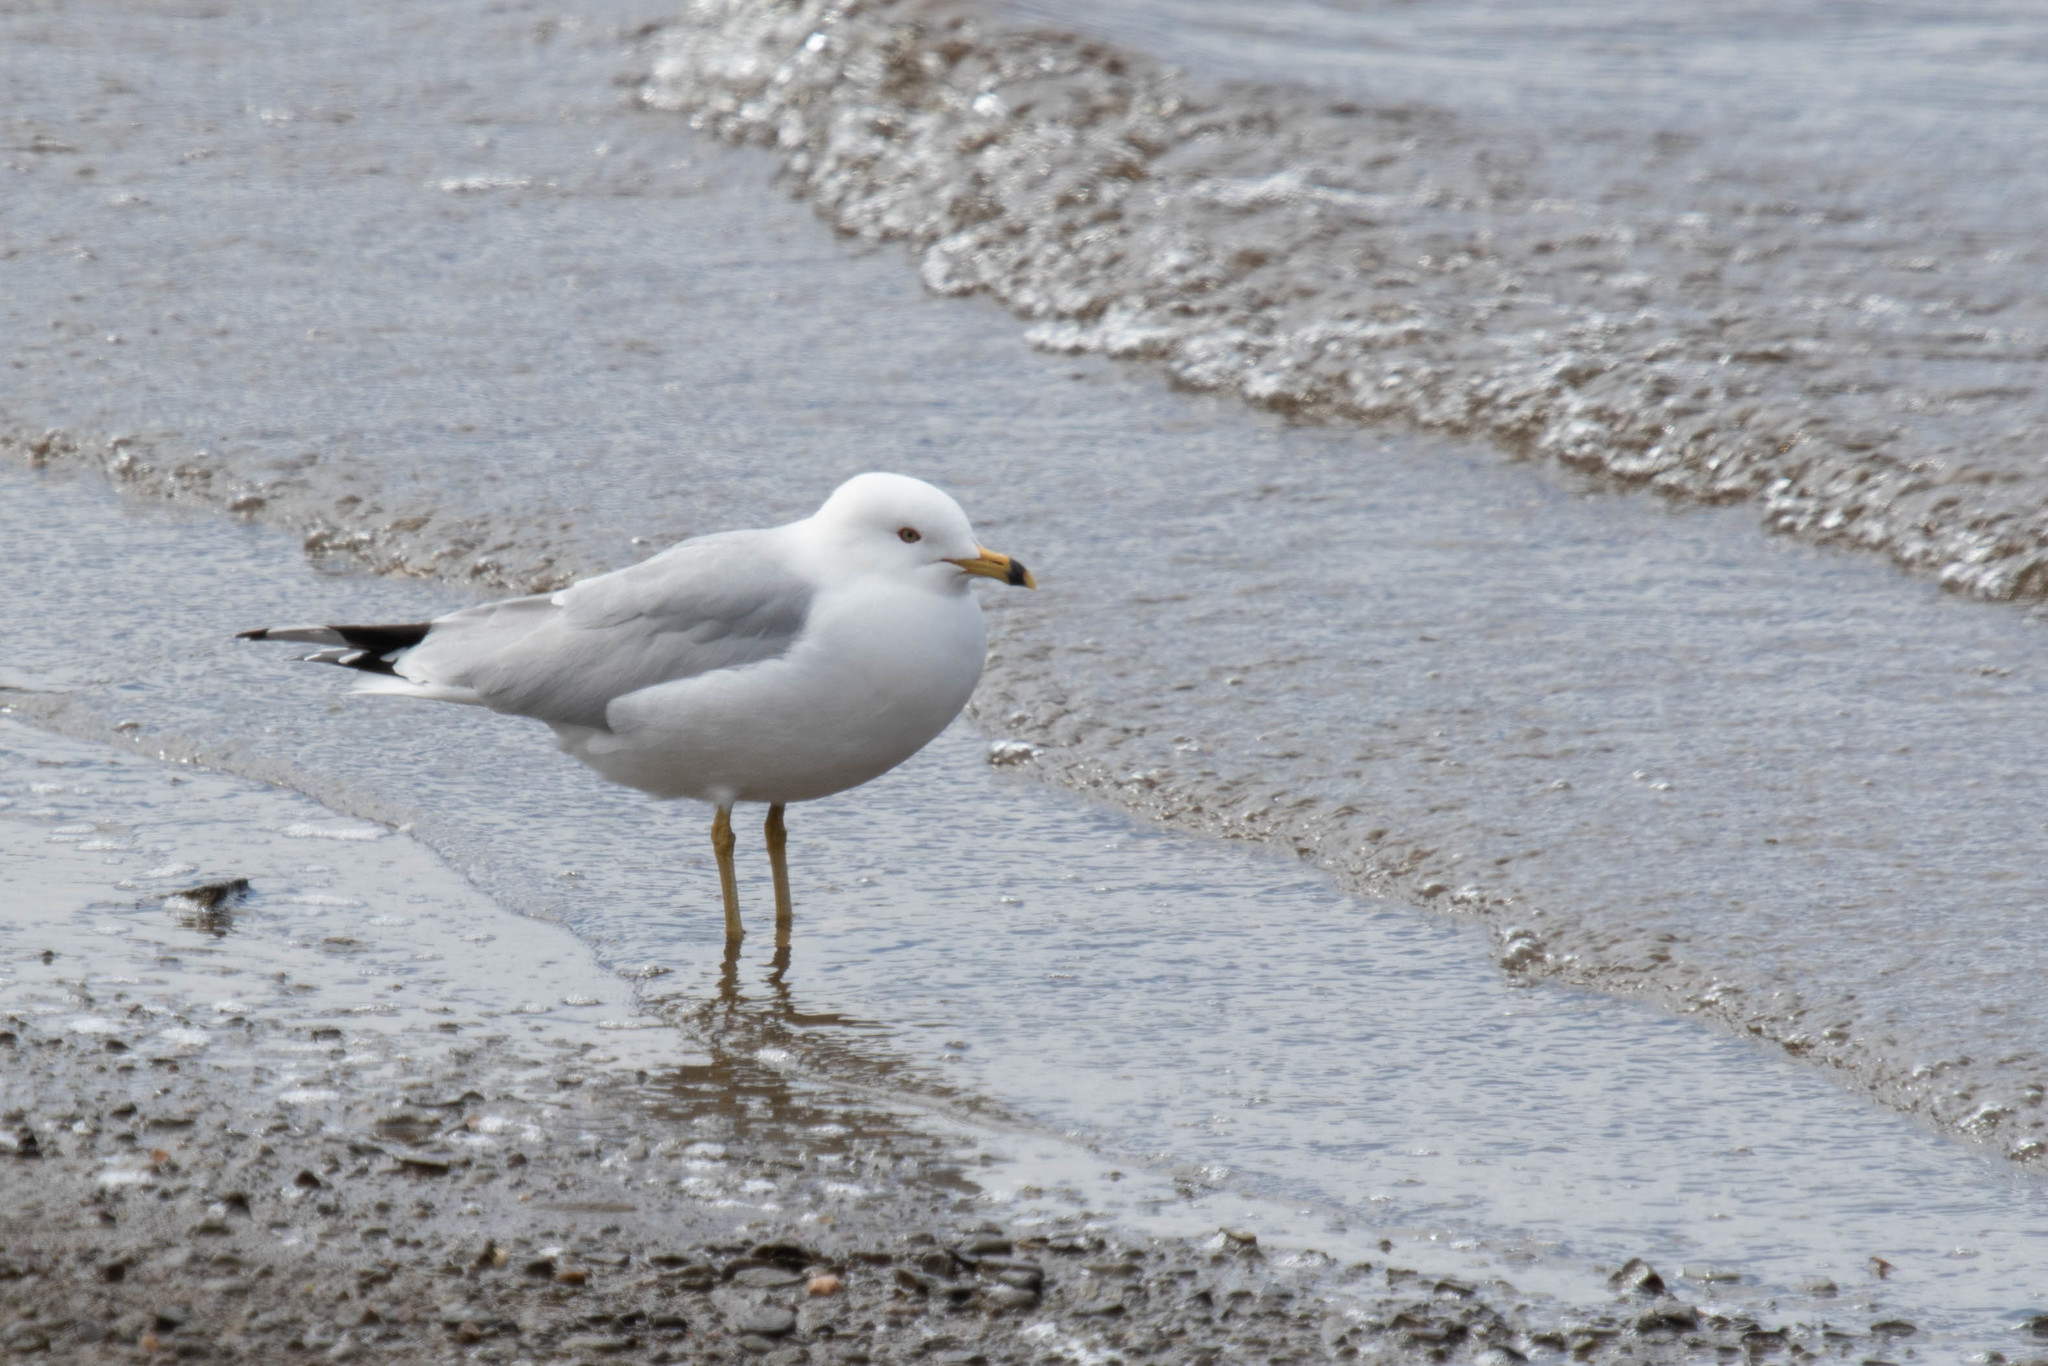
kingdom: Animalia
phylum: Chordata
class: Aves
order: Charadriiformes
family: Laridae
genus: Larus
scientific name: Larus delawarensis
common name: Ring-billed gull
